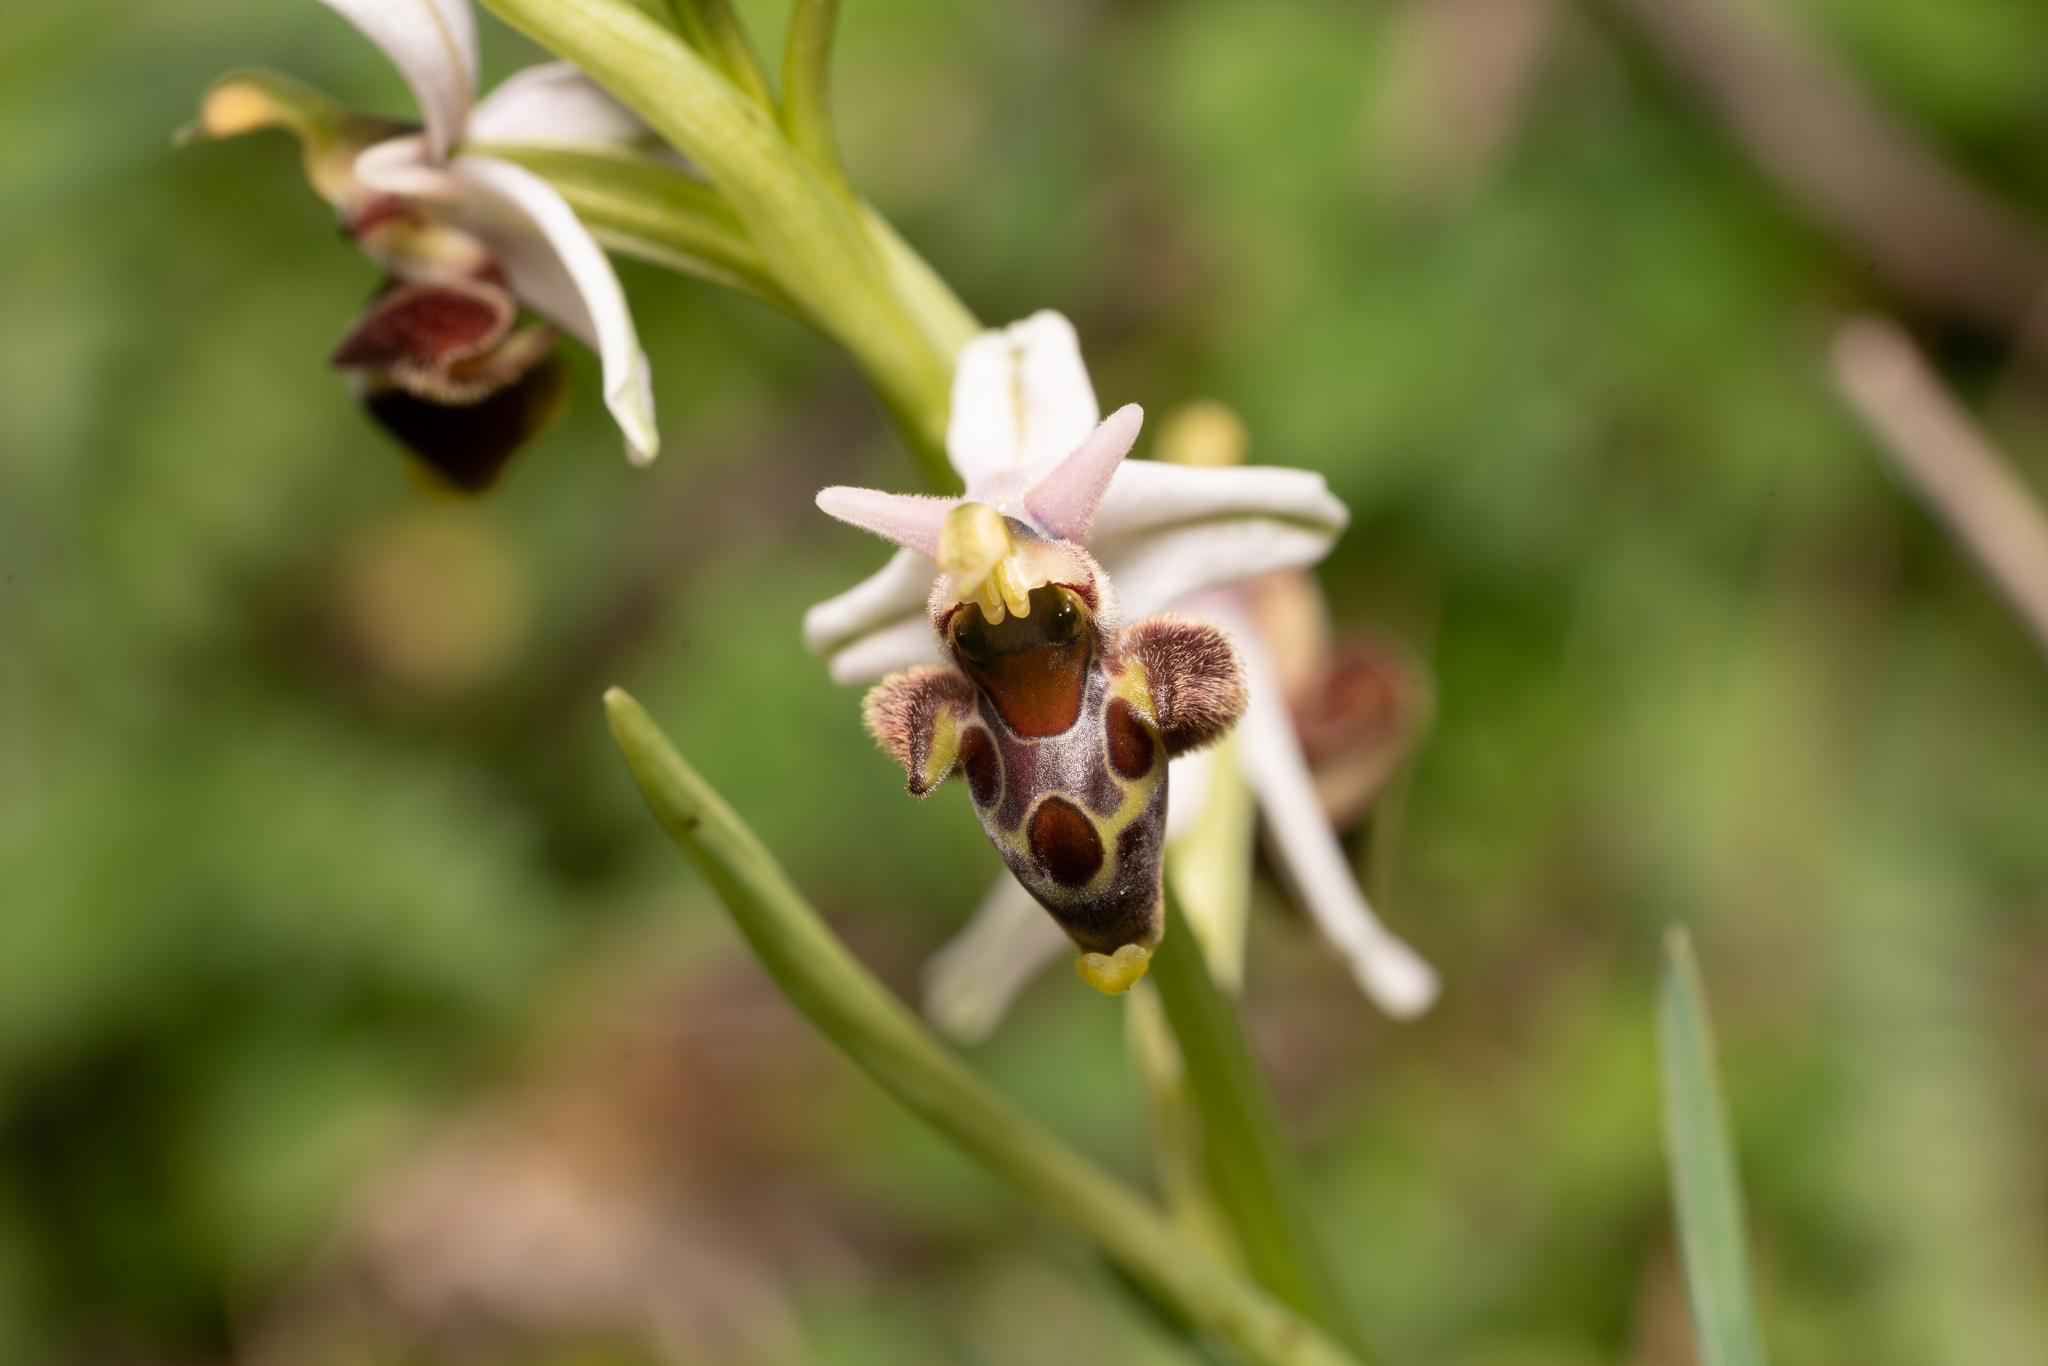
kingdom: Plantae
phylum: Tracheophyta
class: Liliopsida
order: Asparagales
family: Orchidaceae
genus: Ophrys
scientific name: Ophrys vicina
